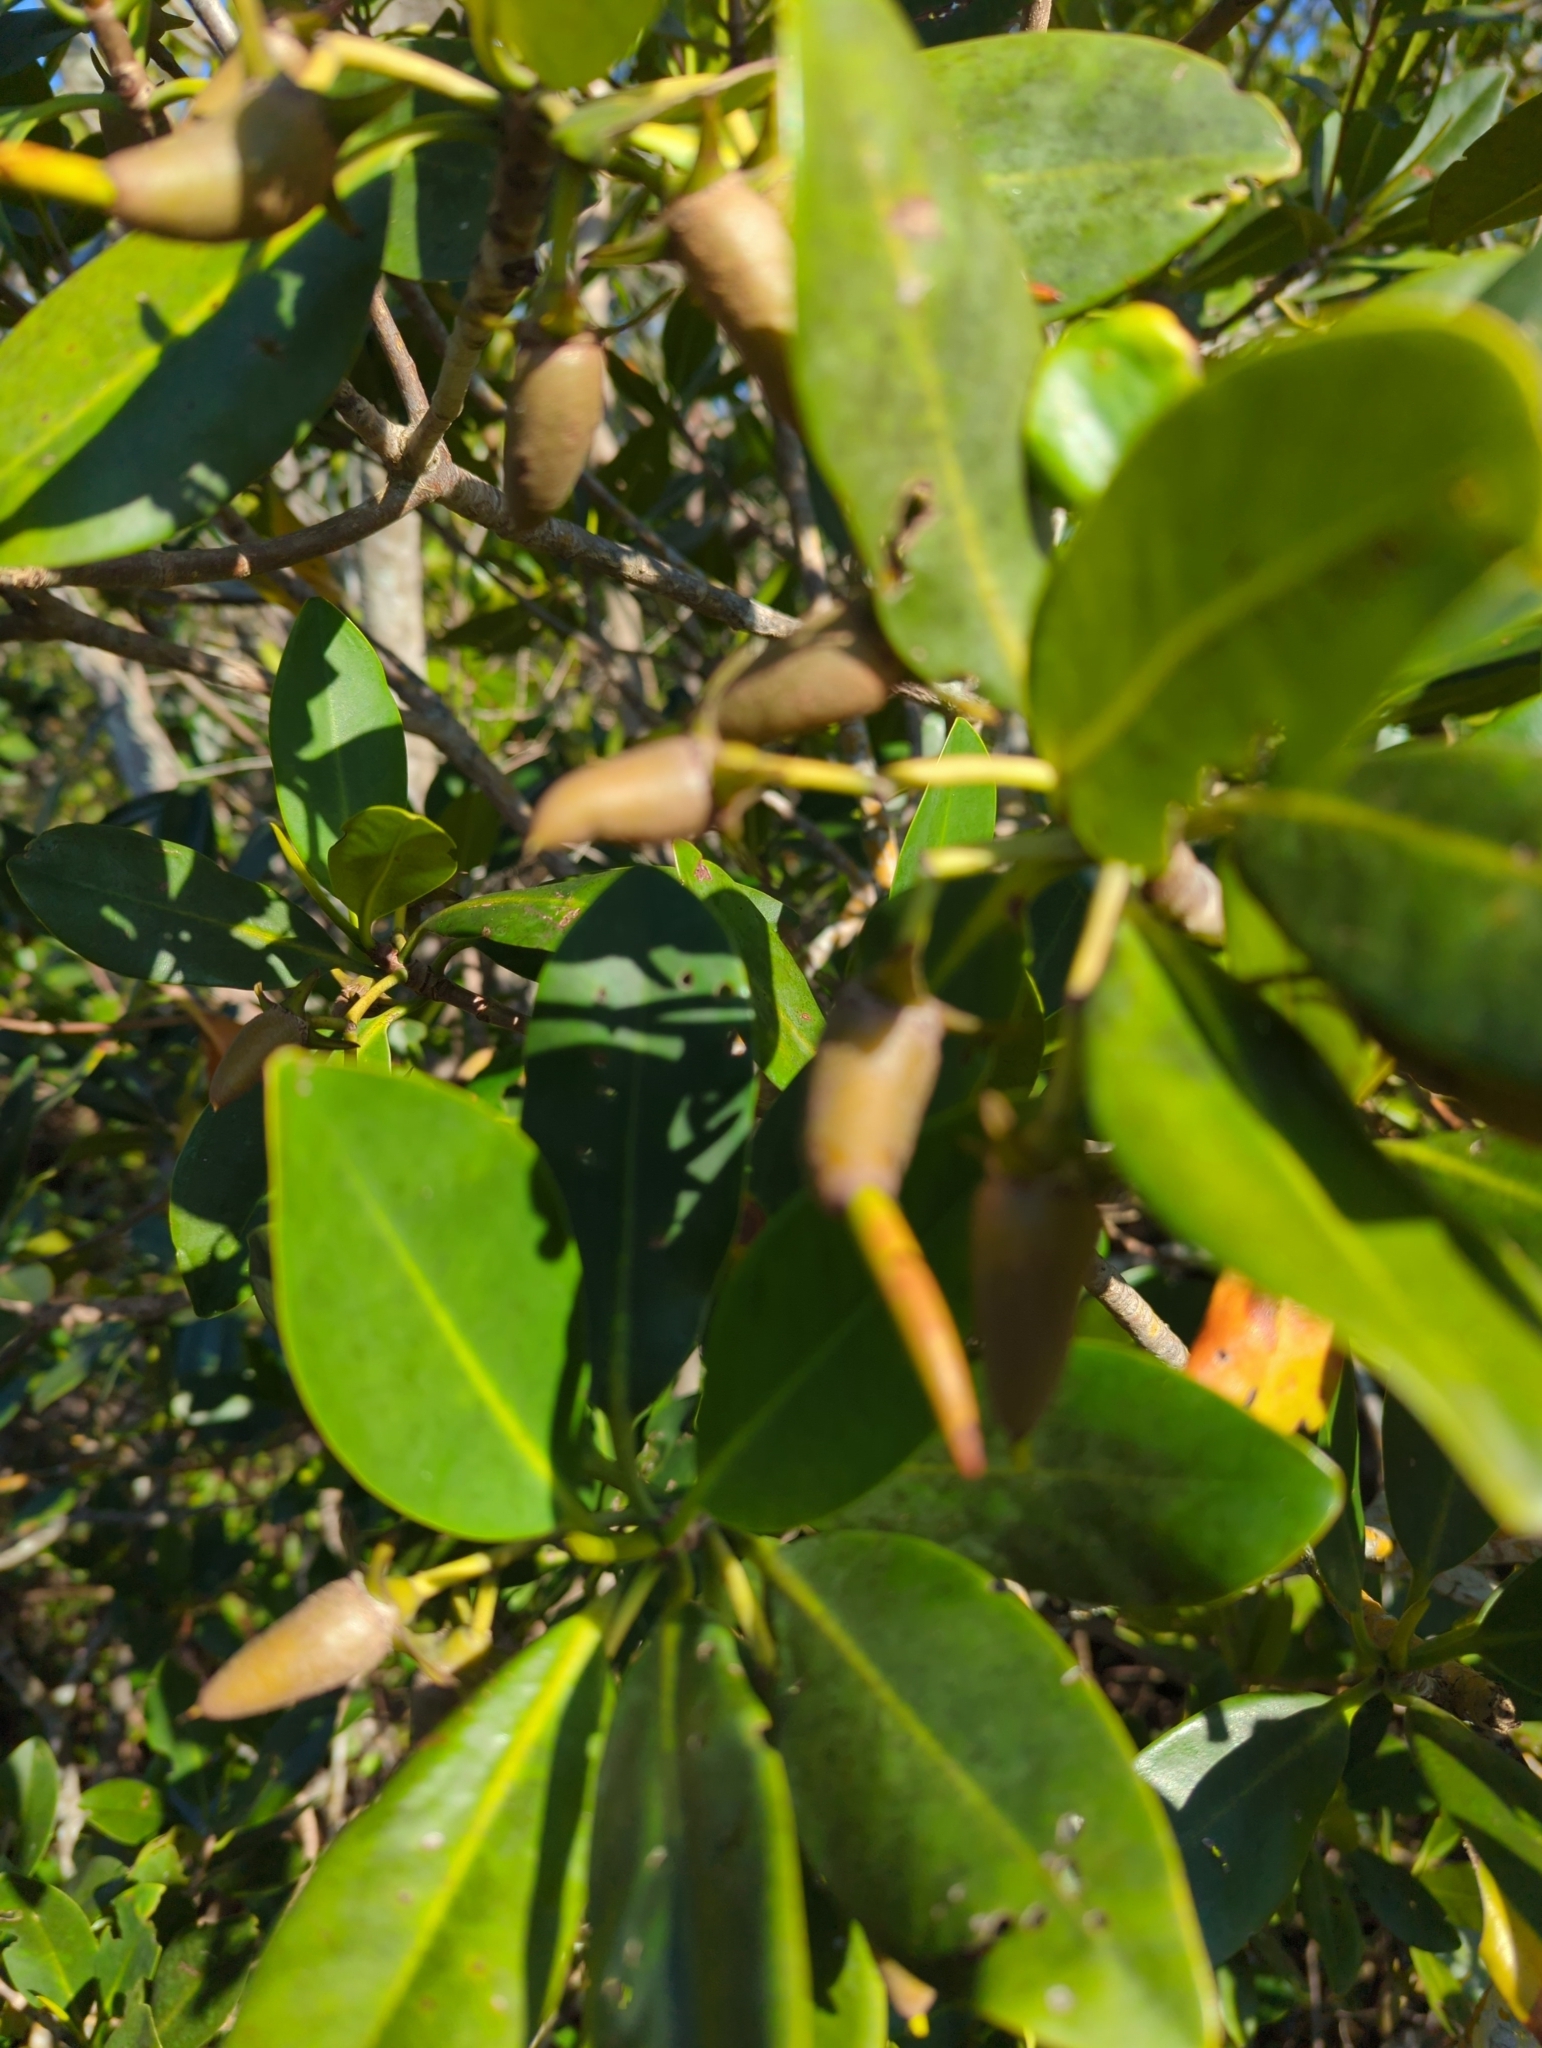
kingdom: Plantae
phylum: Tracheophyta
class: Magnoliopsida
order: Malpighiales
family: Rhizophoraceae
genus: Rhizophora
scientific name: Rhizophora mangle
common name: Red mangrove
